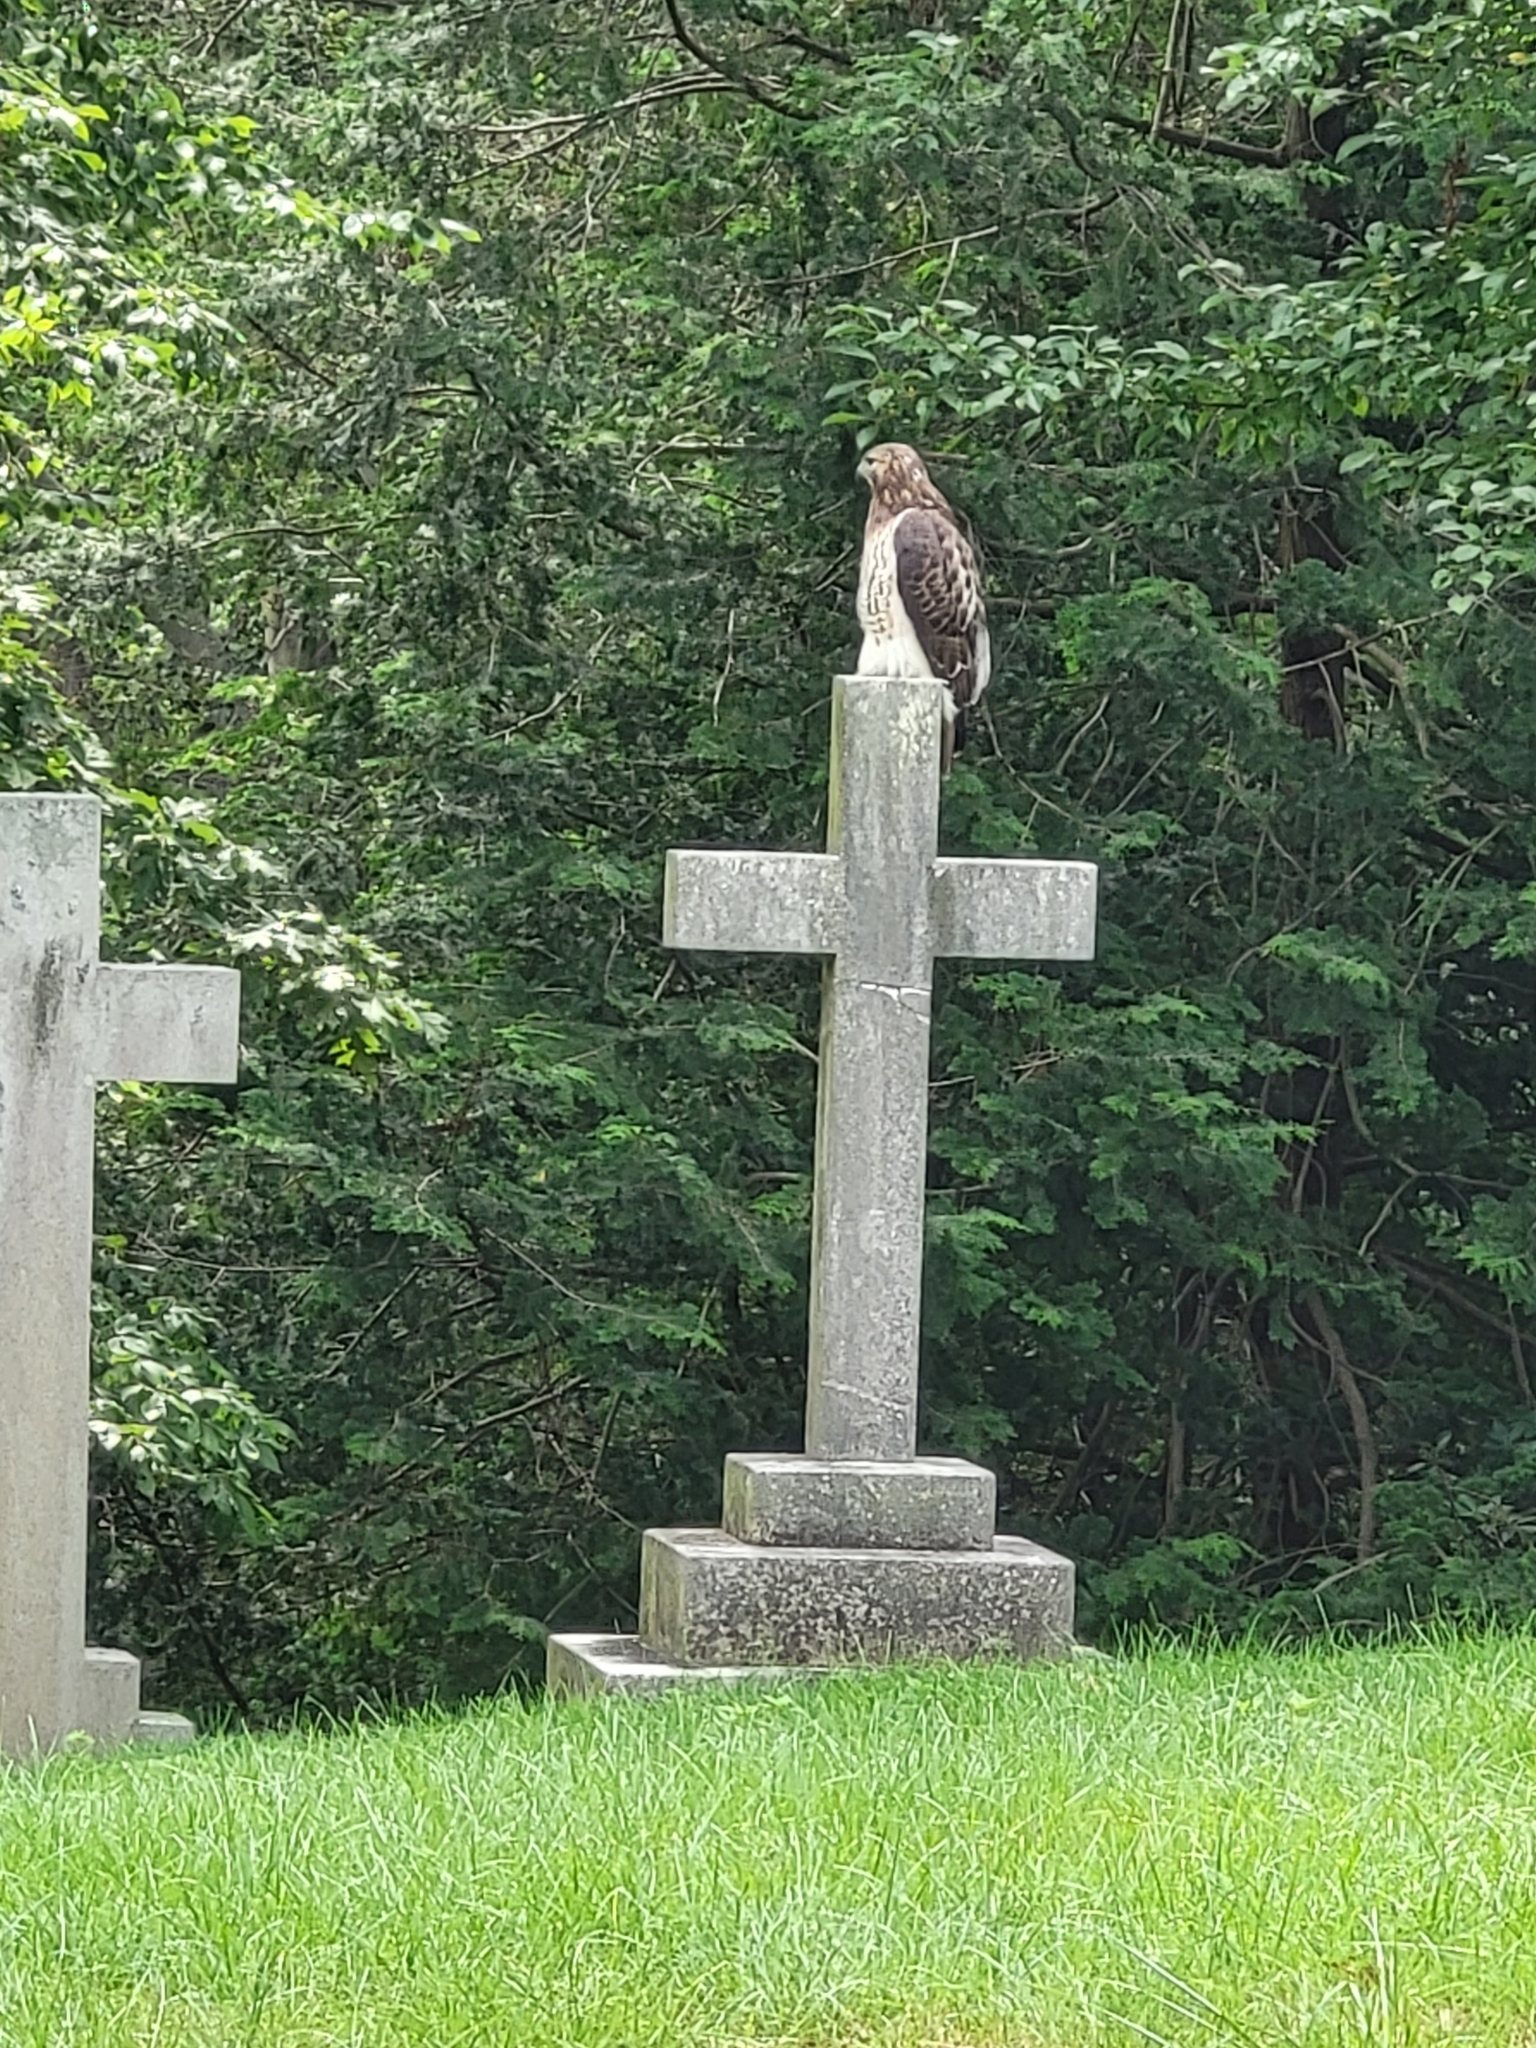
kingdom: Animalia
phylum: Chordata
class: Aves
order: Accipitriformes
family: Accipitridae
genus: Buteo
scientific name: Buteo jamaicensis
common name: Red-tailed hawk
